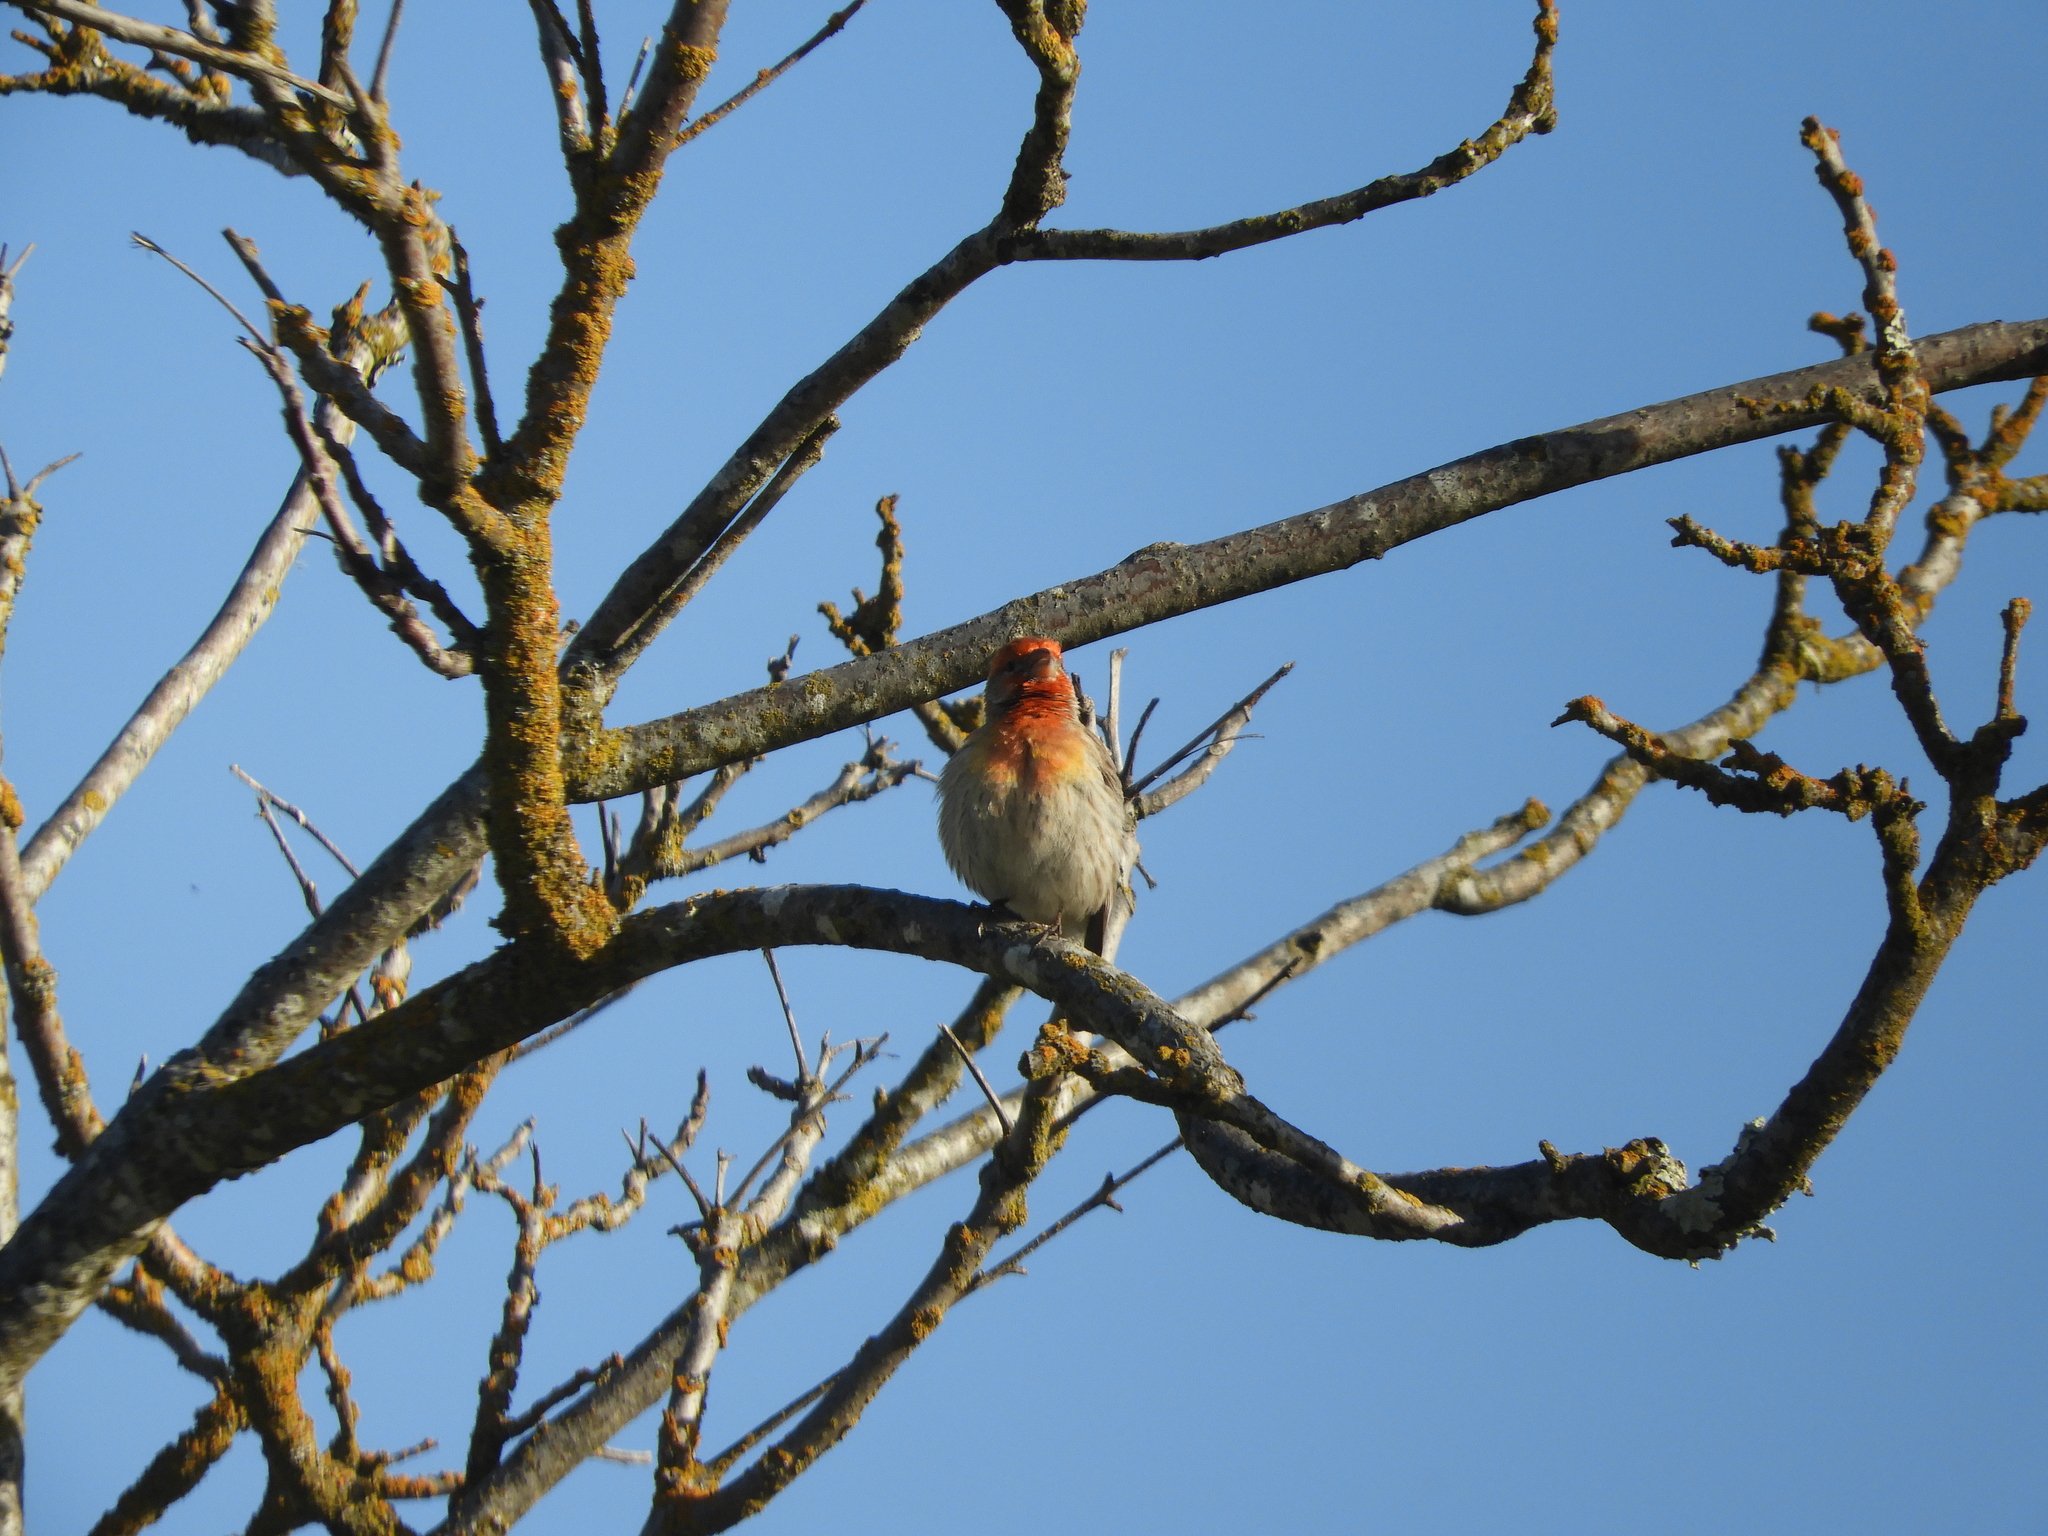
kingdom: Animalia
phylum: Chordata
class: Aves
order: Passeriformes
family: Fringillidae
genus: Haemorhous
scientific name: Haemorhous mexicanus
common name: House finch
